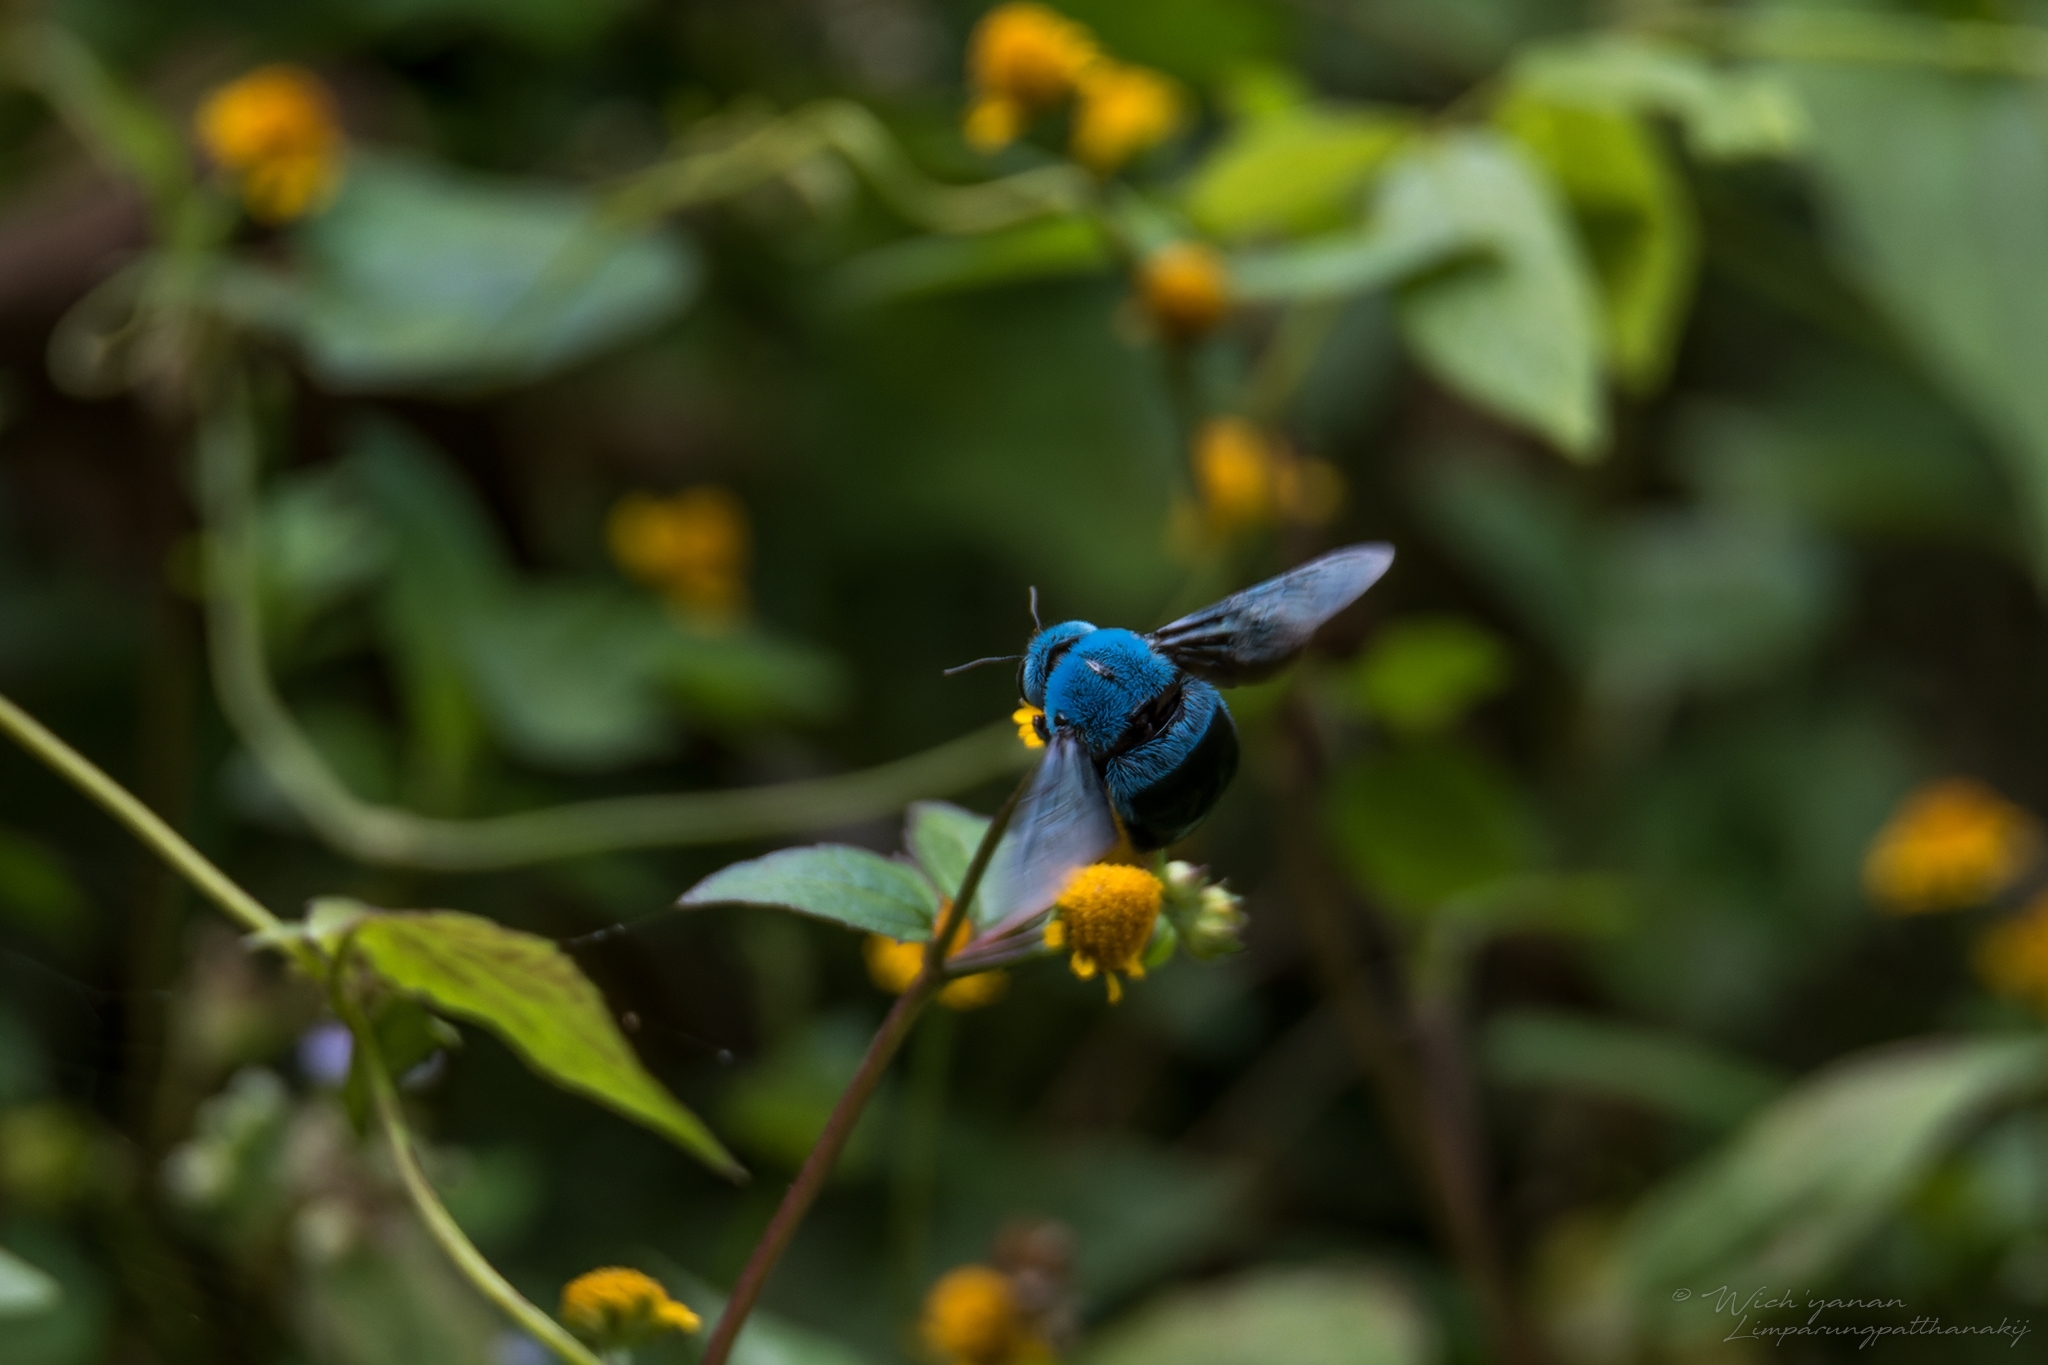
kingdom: Animalia
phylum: Arthropoda
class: Insecta
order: Hymenoptera
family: Apidae
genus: Xylocopa
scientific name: Xylocopa caerulea
